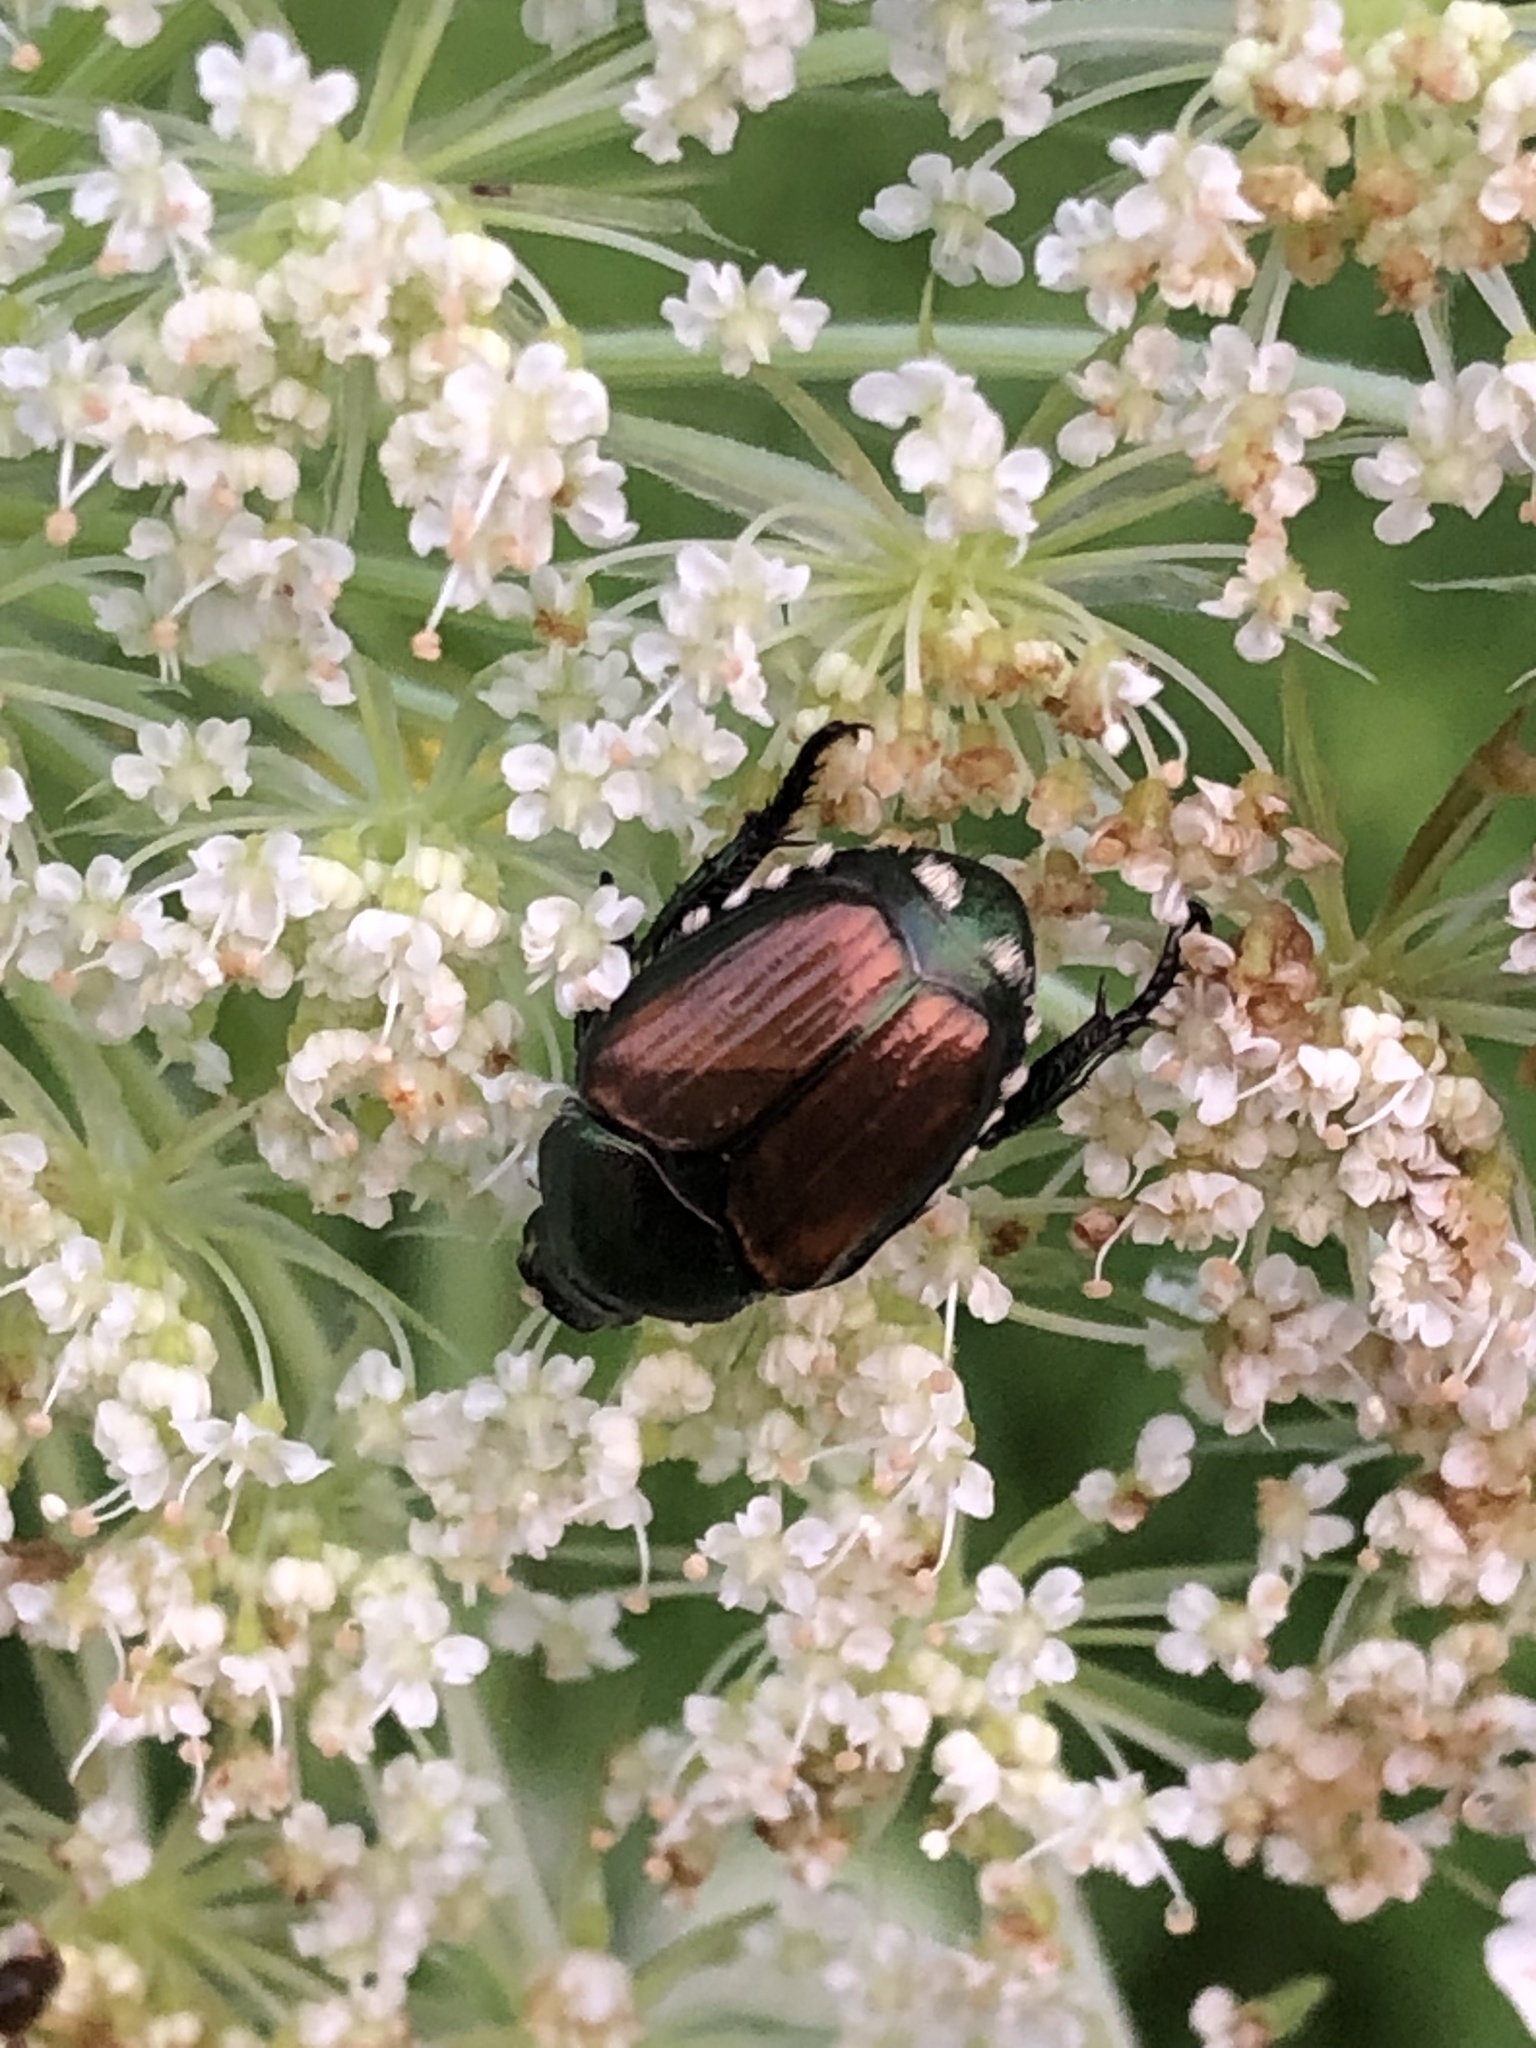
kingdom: Animalia
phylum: Arthropoda
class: Insecta
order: Coleoptera
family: Scarabaeidae
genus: Popillia
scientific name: Popillia japonica
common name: Japanese beetle
